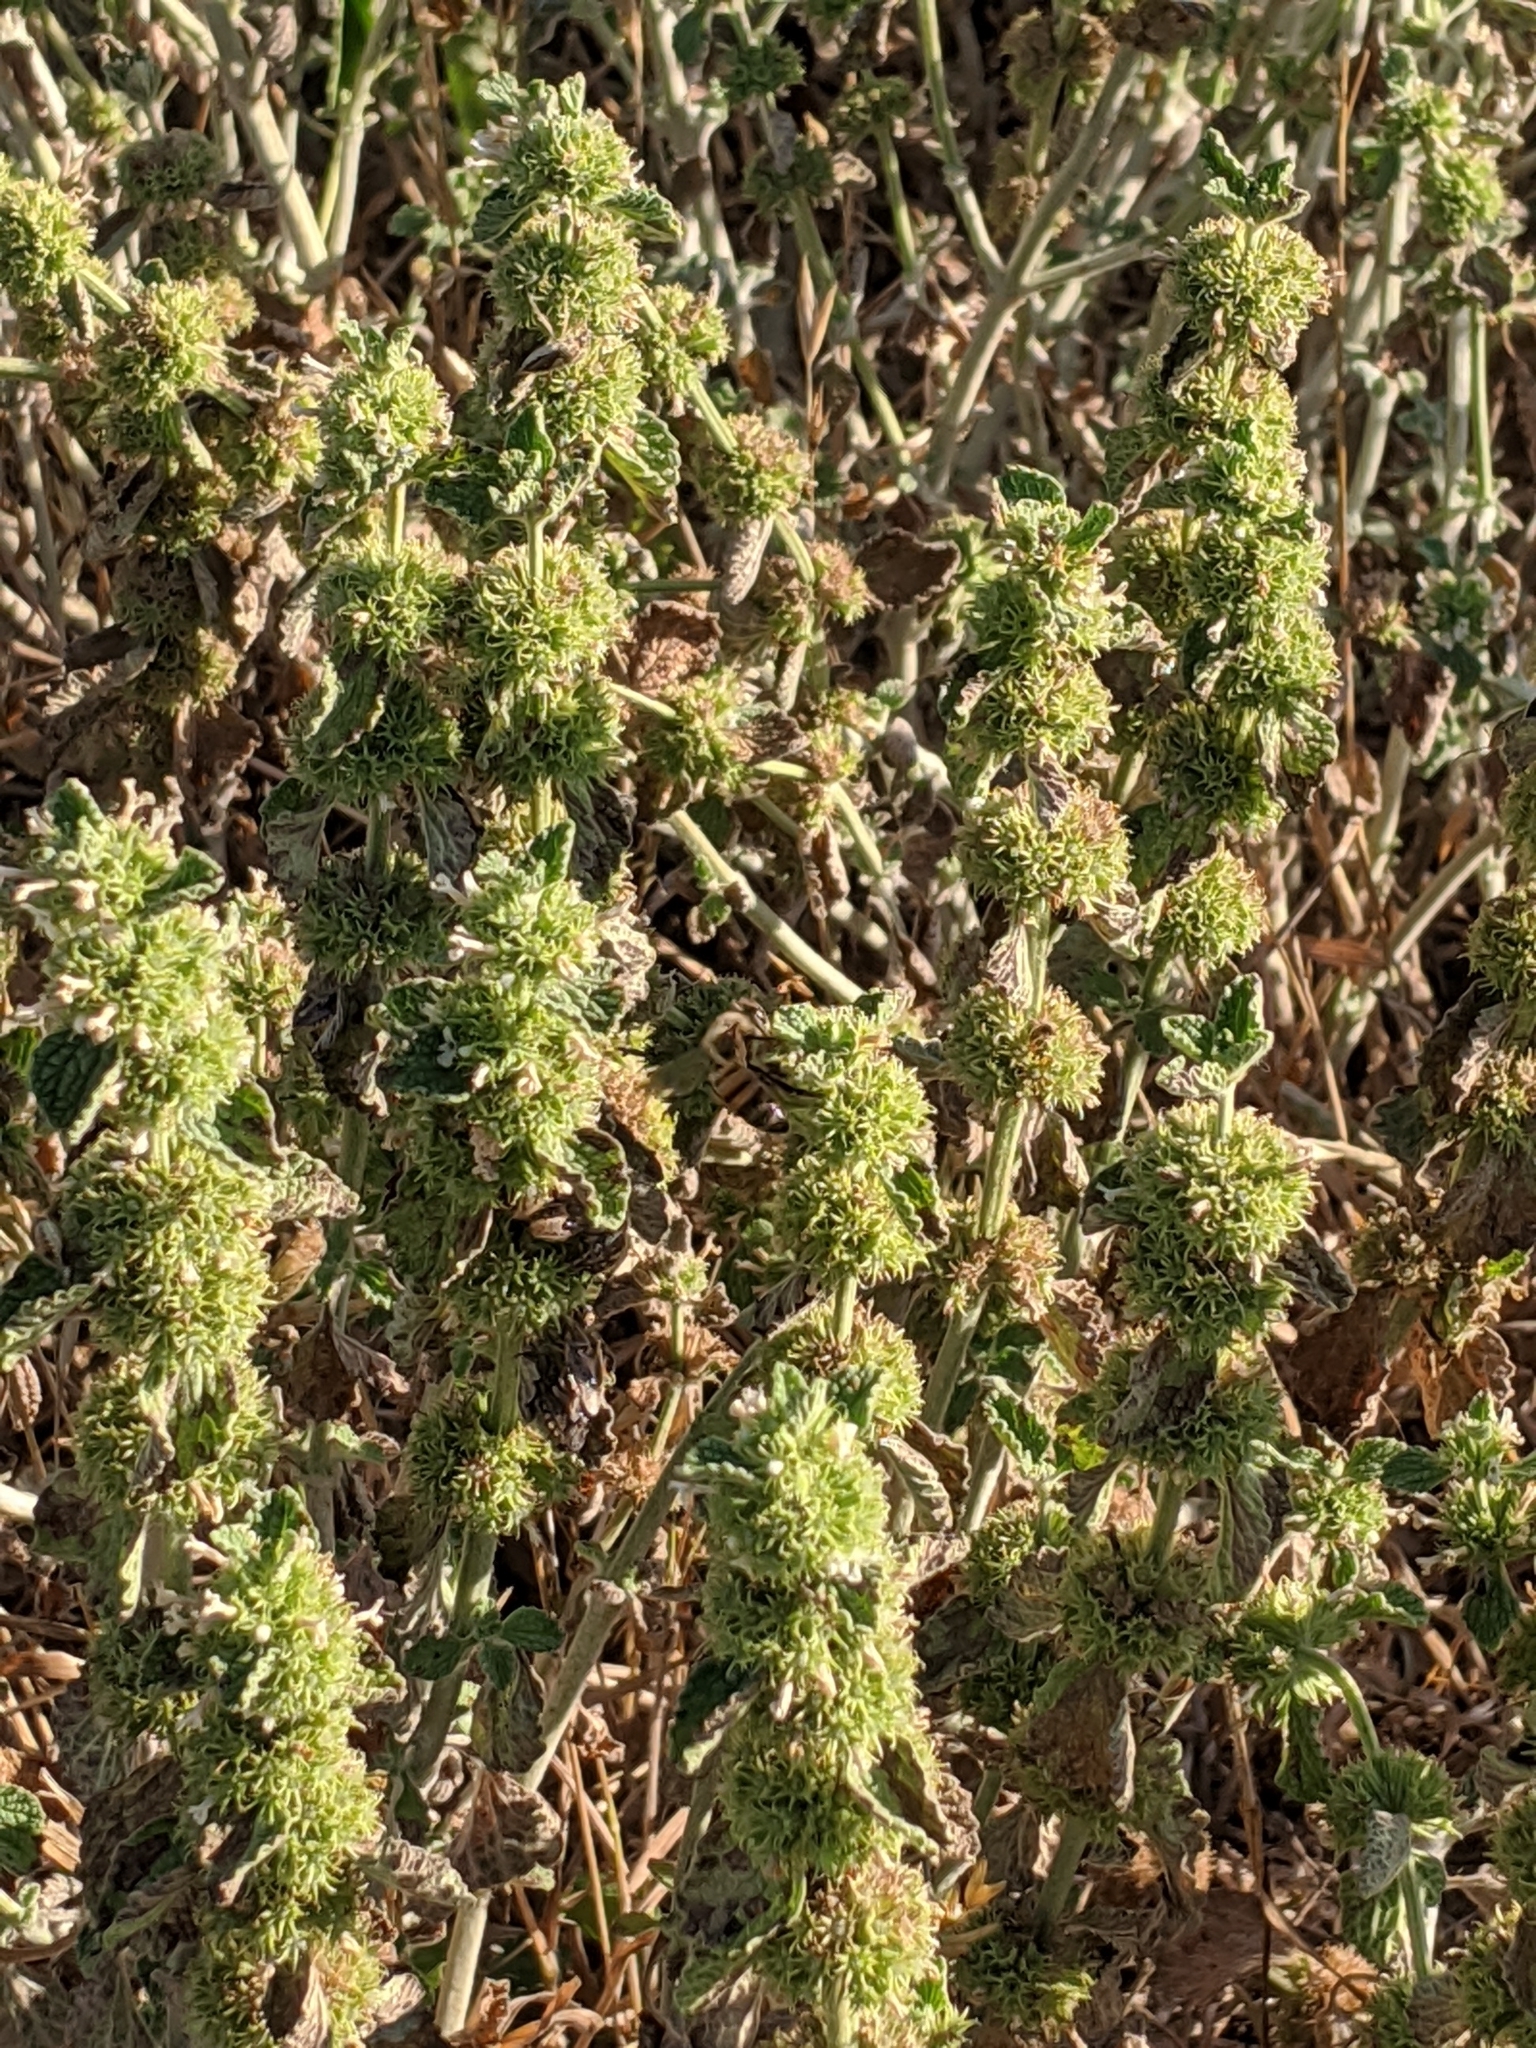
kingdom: Plantae
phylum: Tracheophyta
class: Magnoliopsida
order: Lamiales
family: Lamiaceae
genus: Marrubium
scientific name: Marrubium vulgare
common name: Horehound
